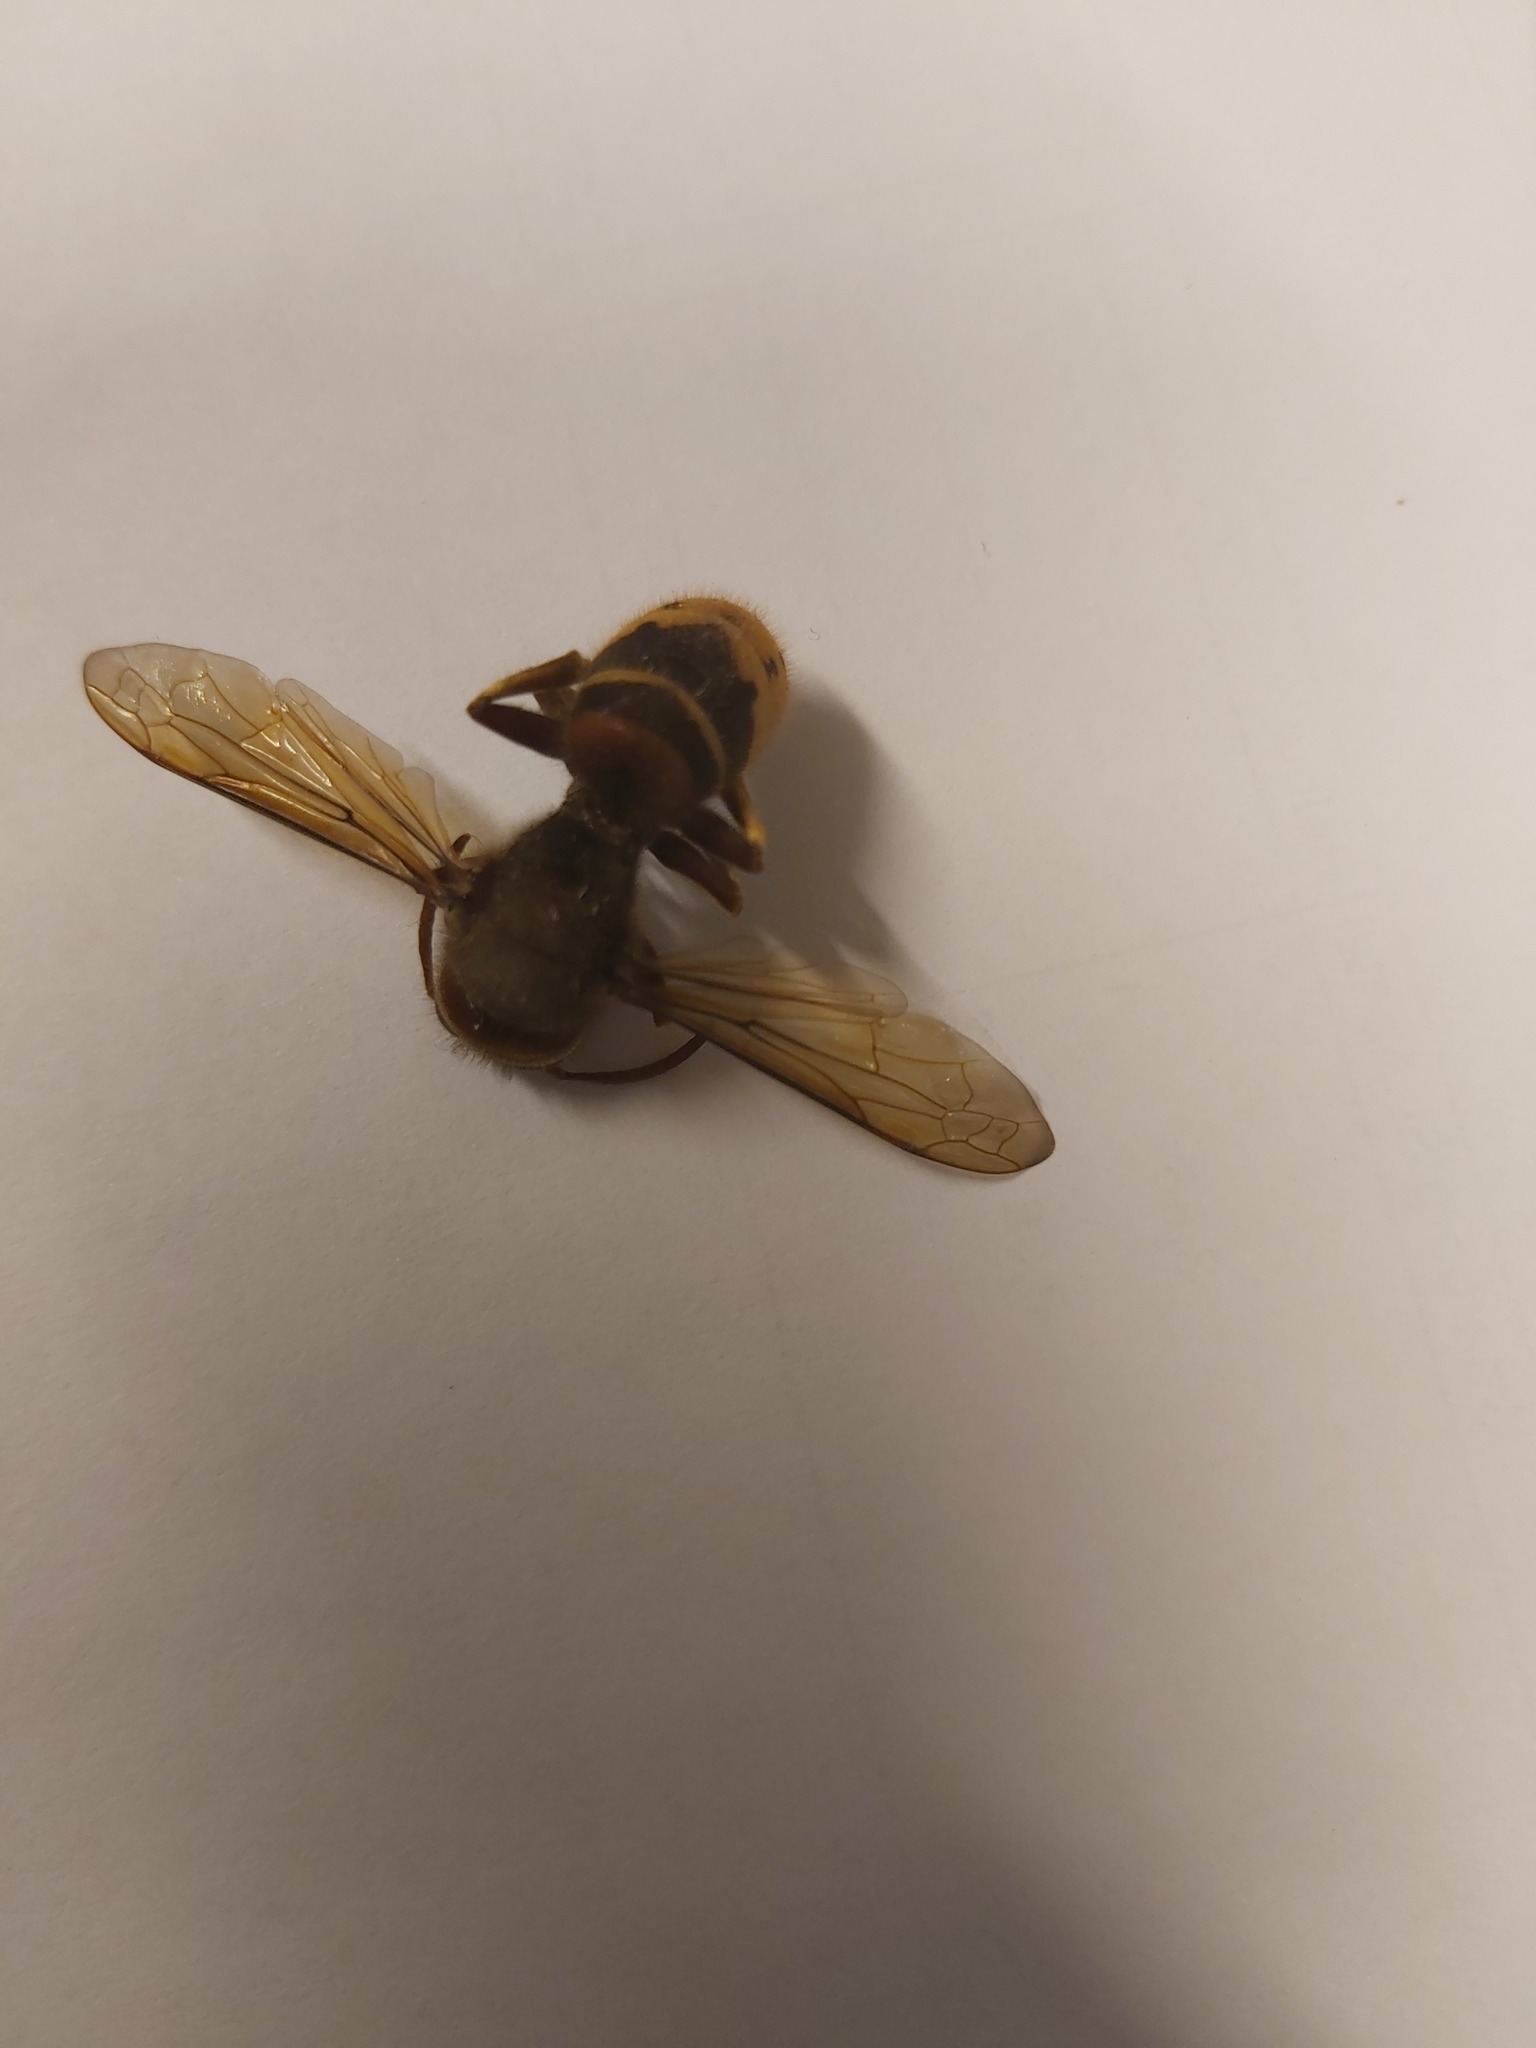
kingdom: Animalia
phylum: Arthropoda
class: Insecta
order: Hymenoptera
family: Vespidae
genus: Vespa
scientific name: Vespa crabro
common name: Hornet
